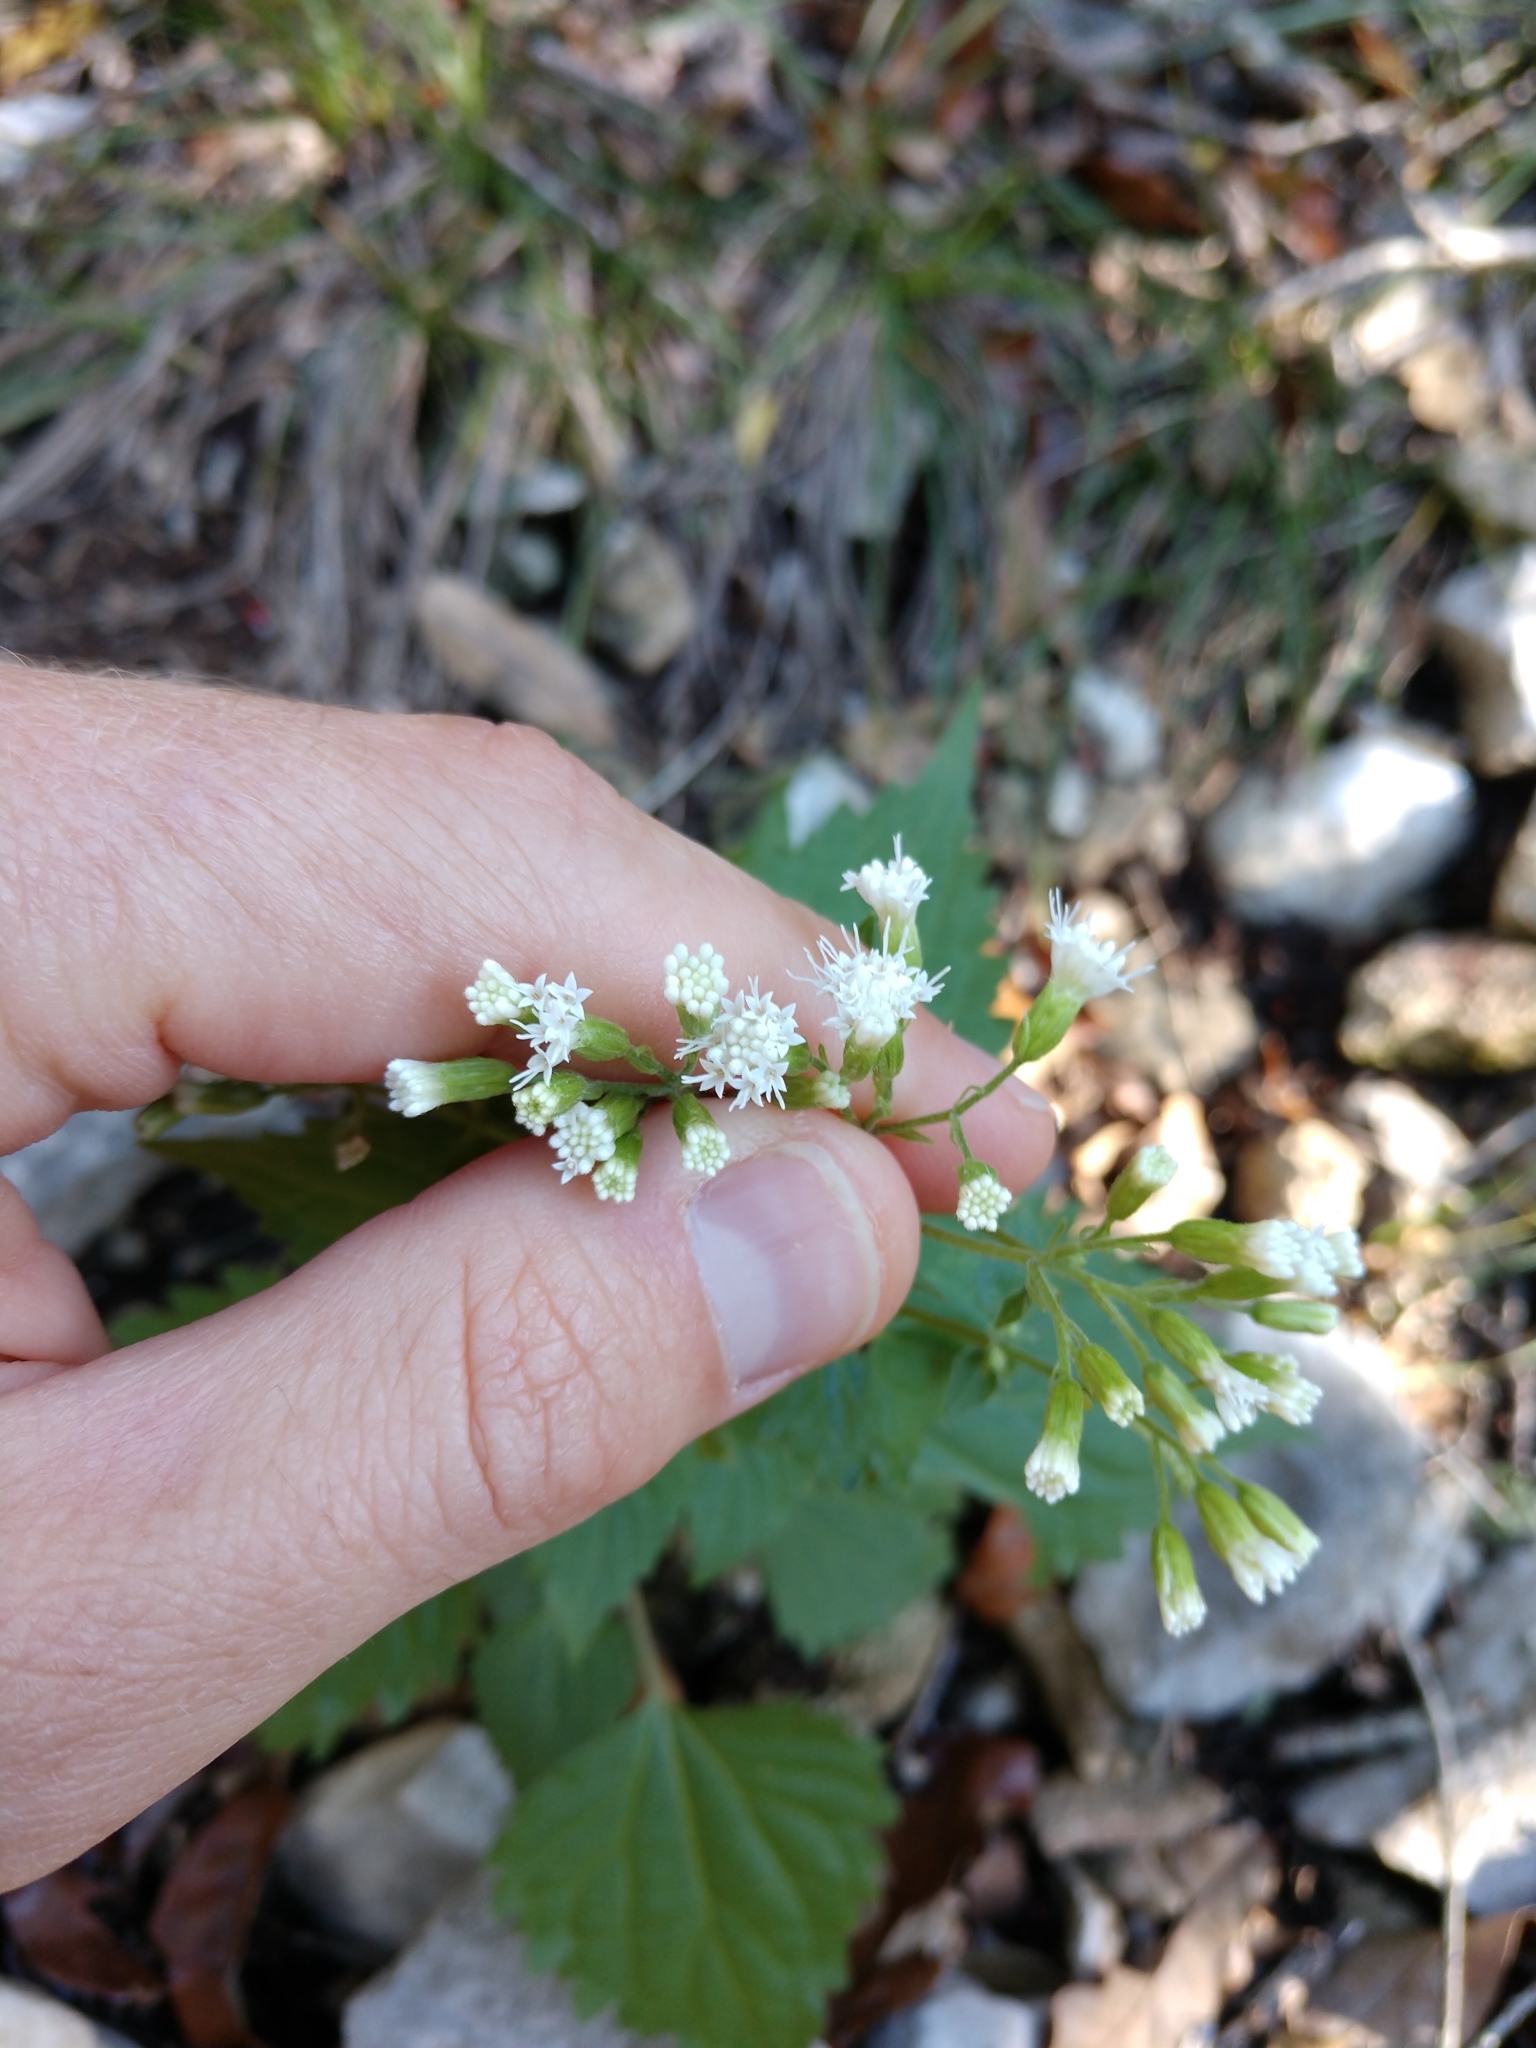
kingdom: Plantae
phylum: Tracheophyta
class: Magnoliopsida
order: Asterales
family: Asteraceae
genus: Ageratina
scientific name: Ageratina havanensis
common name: Havana snakeroot
